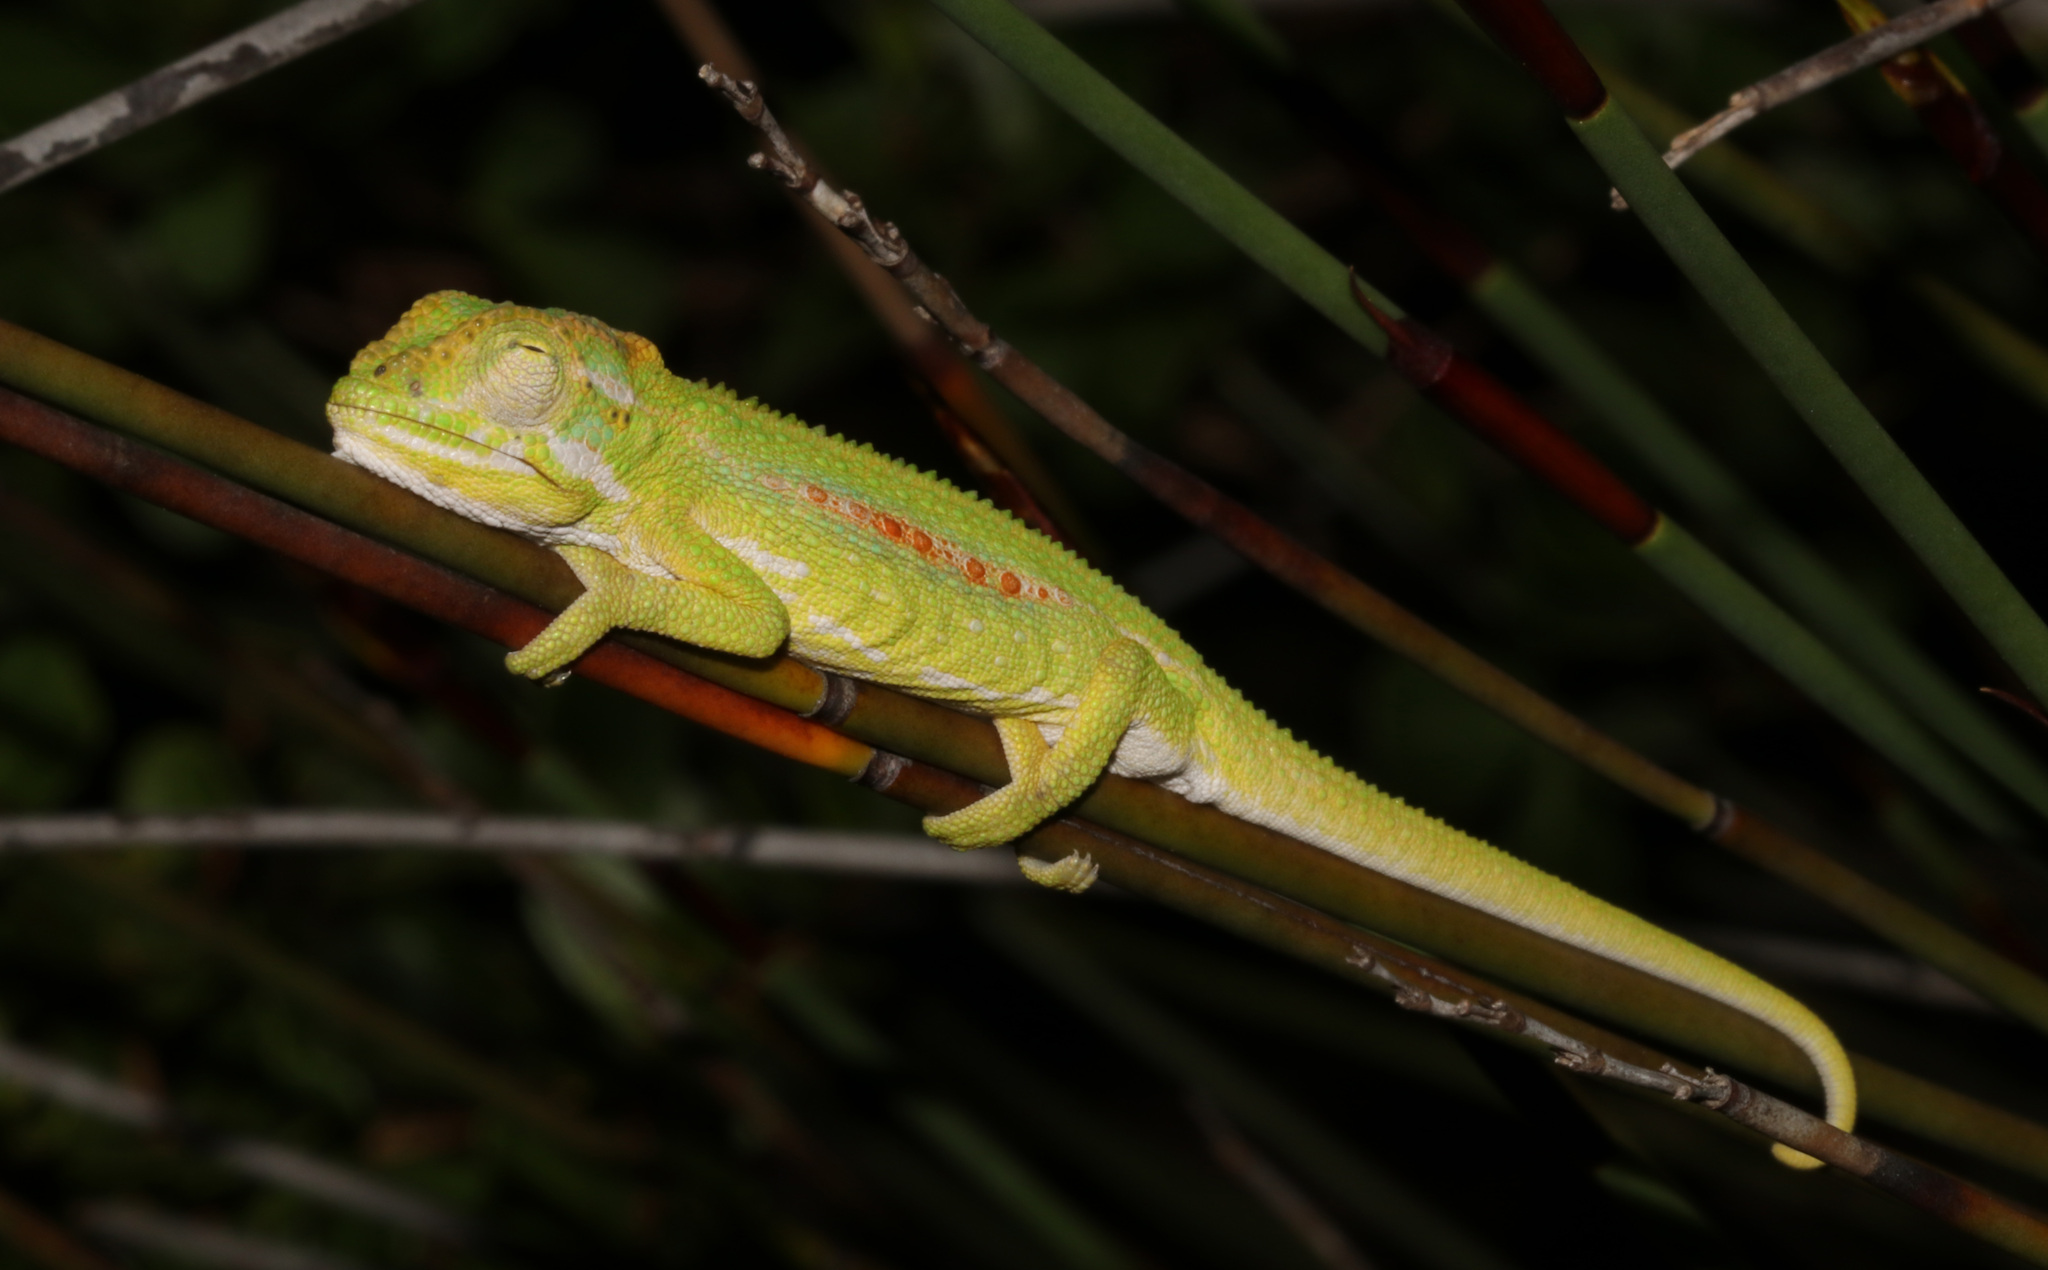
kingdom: Animalia
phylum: Chordata
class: Squamata
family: Chamaeleonidae
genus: Bradypodion
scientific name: Bradypodion pumilum
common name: Cape dwarf chameleon
